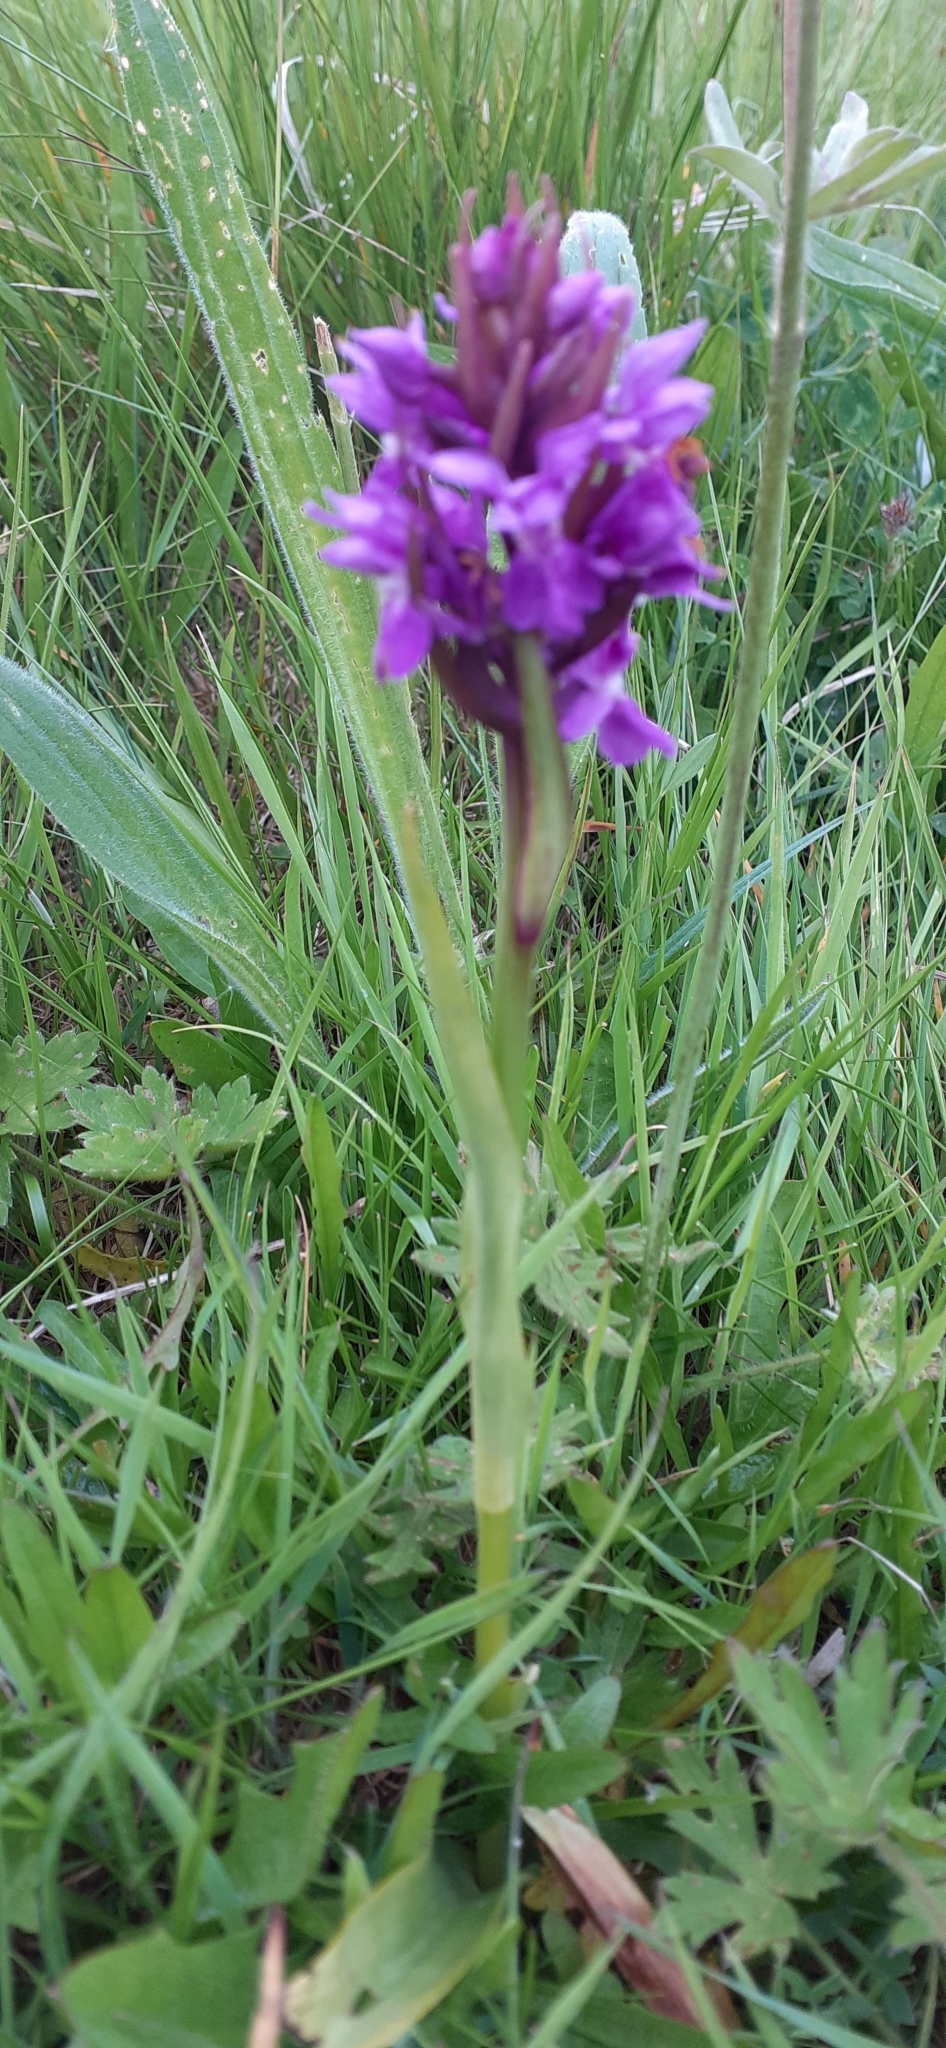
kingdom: Plantae
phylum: Tracheophyta
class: Liliopsida
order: Asparagales
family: Orchidaceae
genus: Dactylorhiza
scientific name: Dactylorhiza majalis
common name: Marsh orchid
